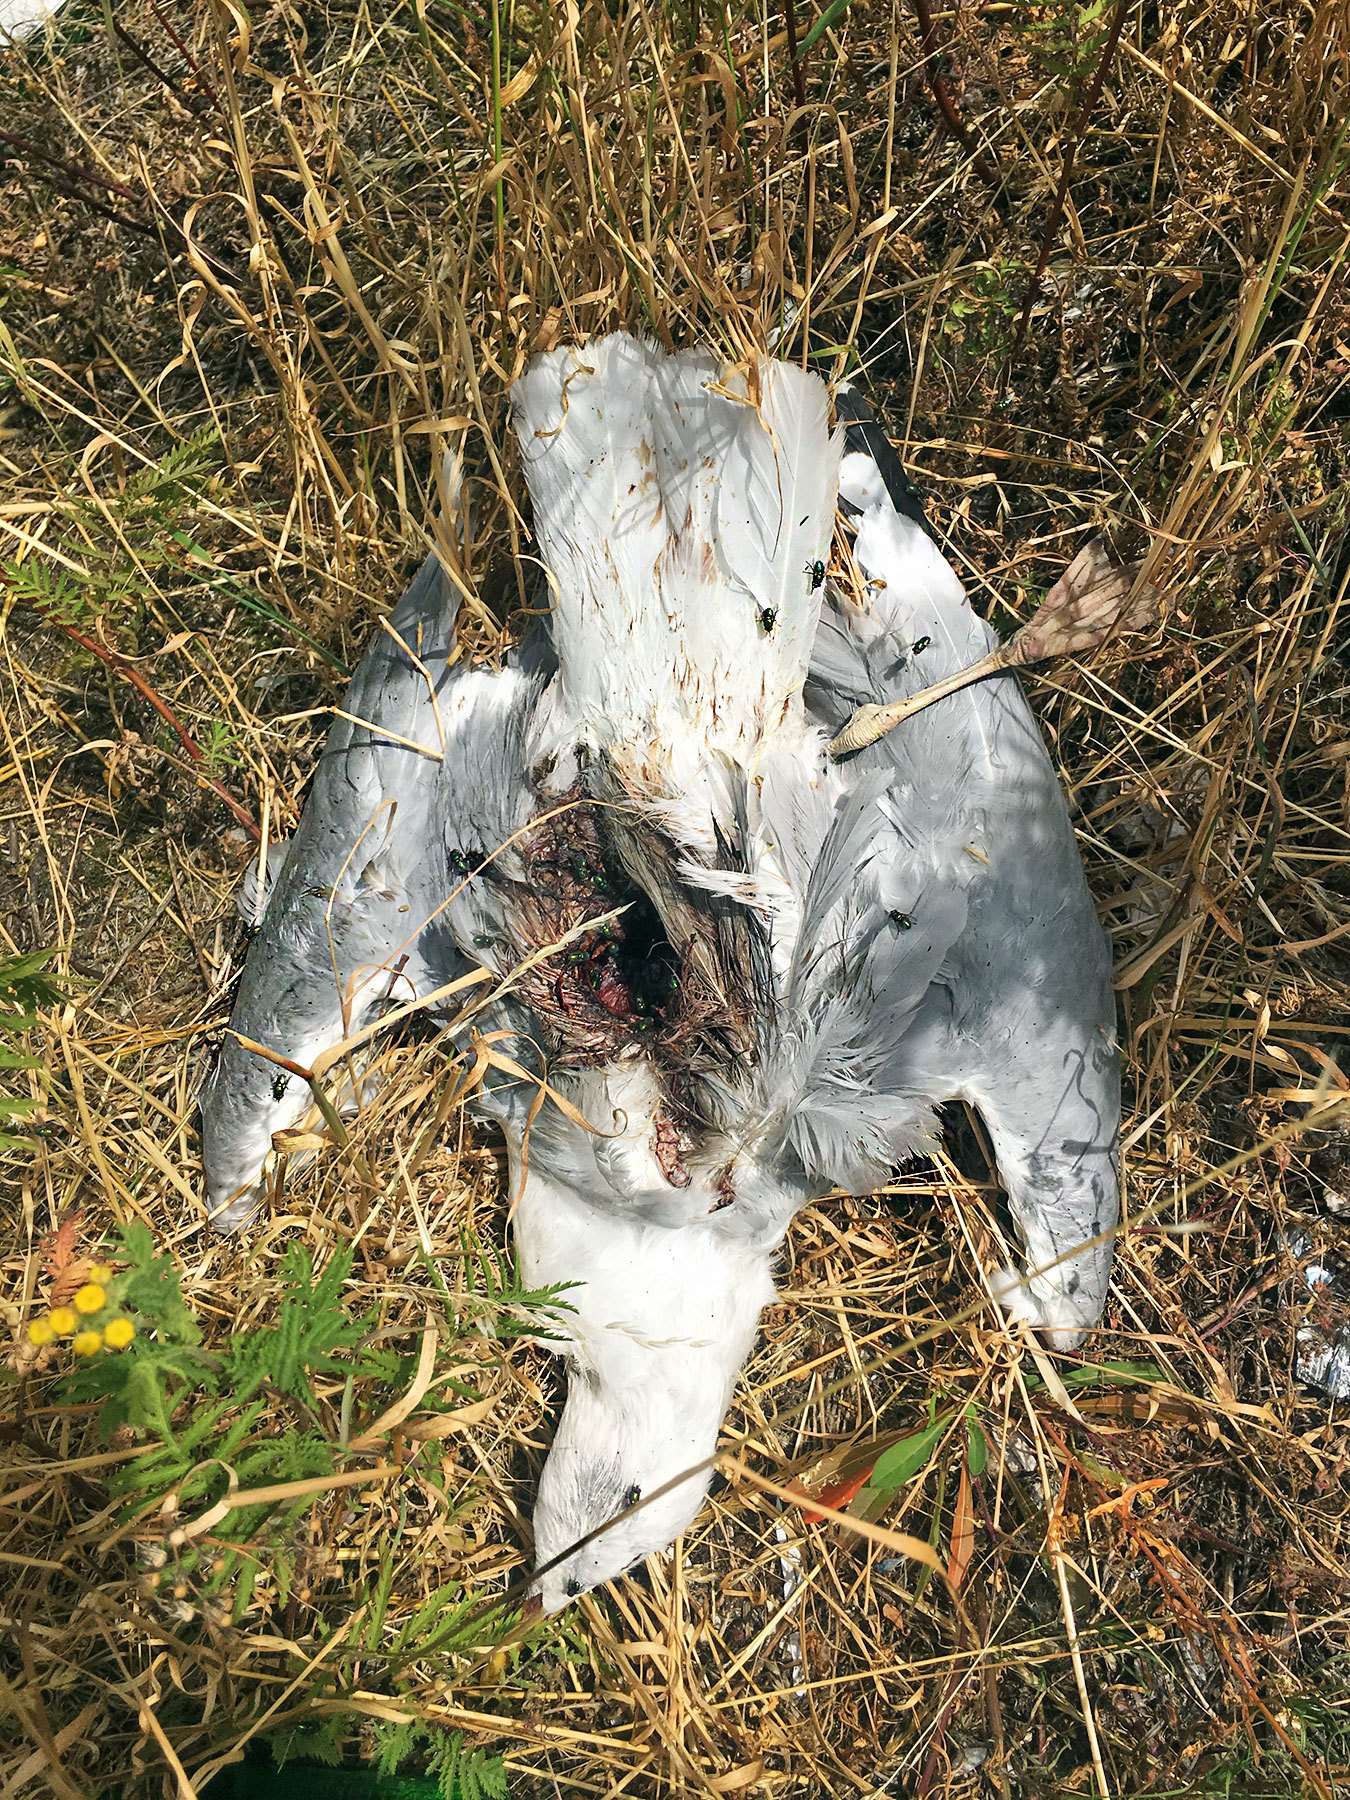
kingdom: Animalia
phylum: Chordata
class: Aves
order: Charadriiformes
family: Laridae
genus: Larus
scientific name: Larus argentatus
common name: Herring gull
